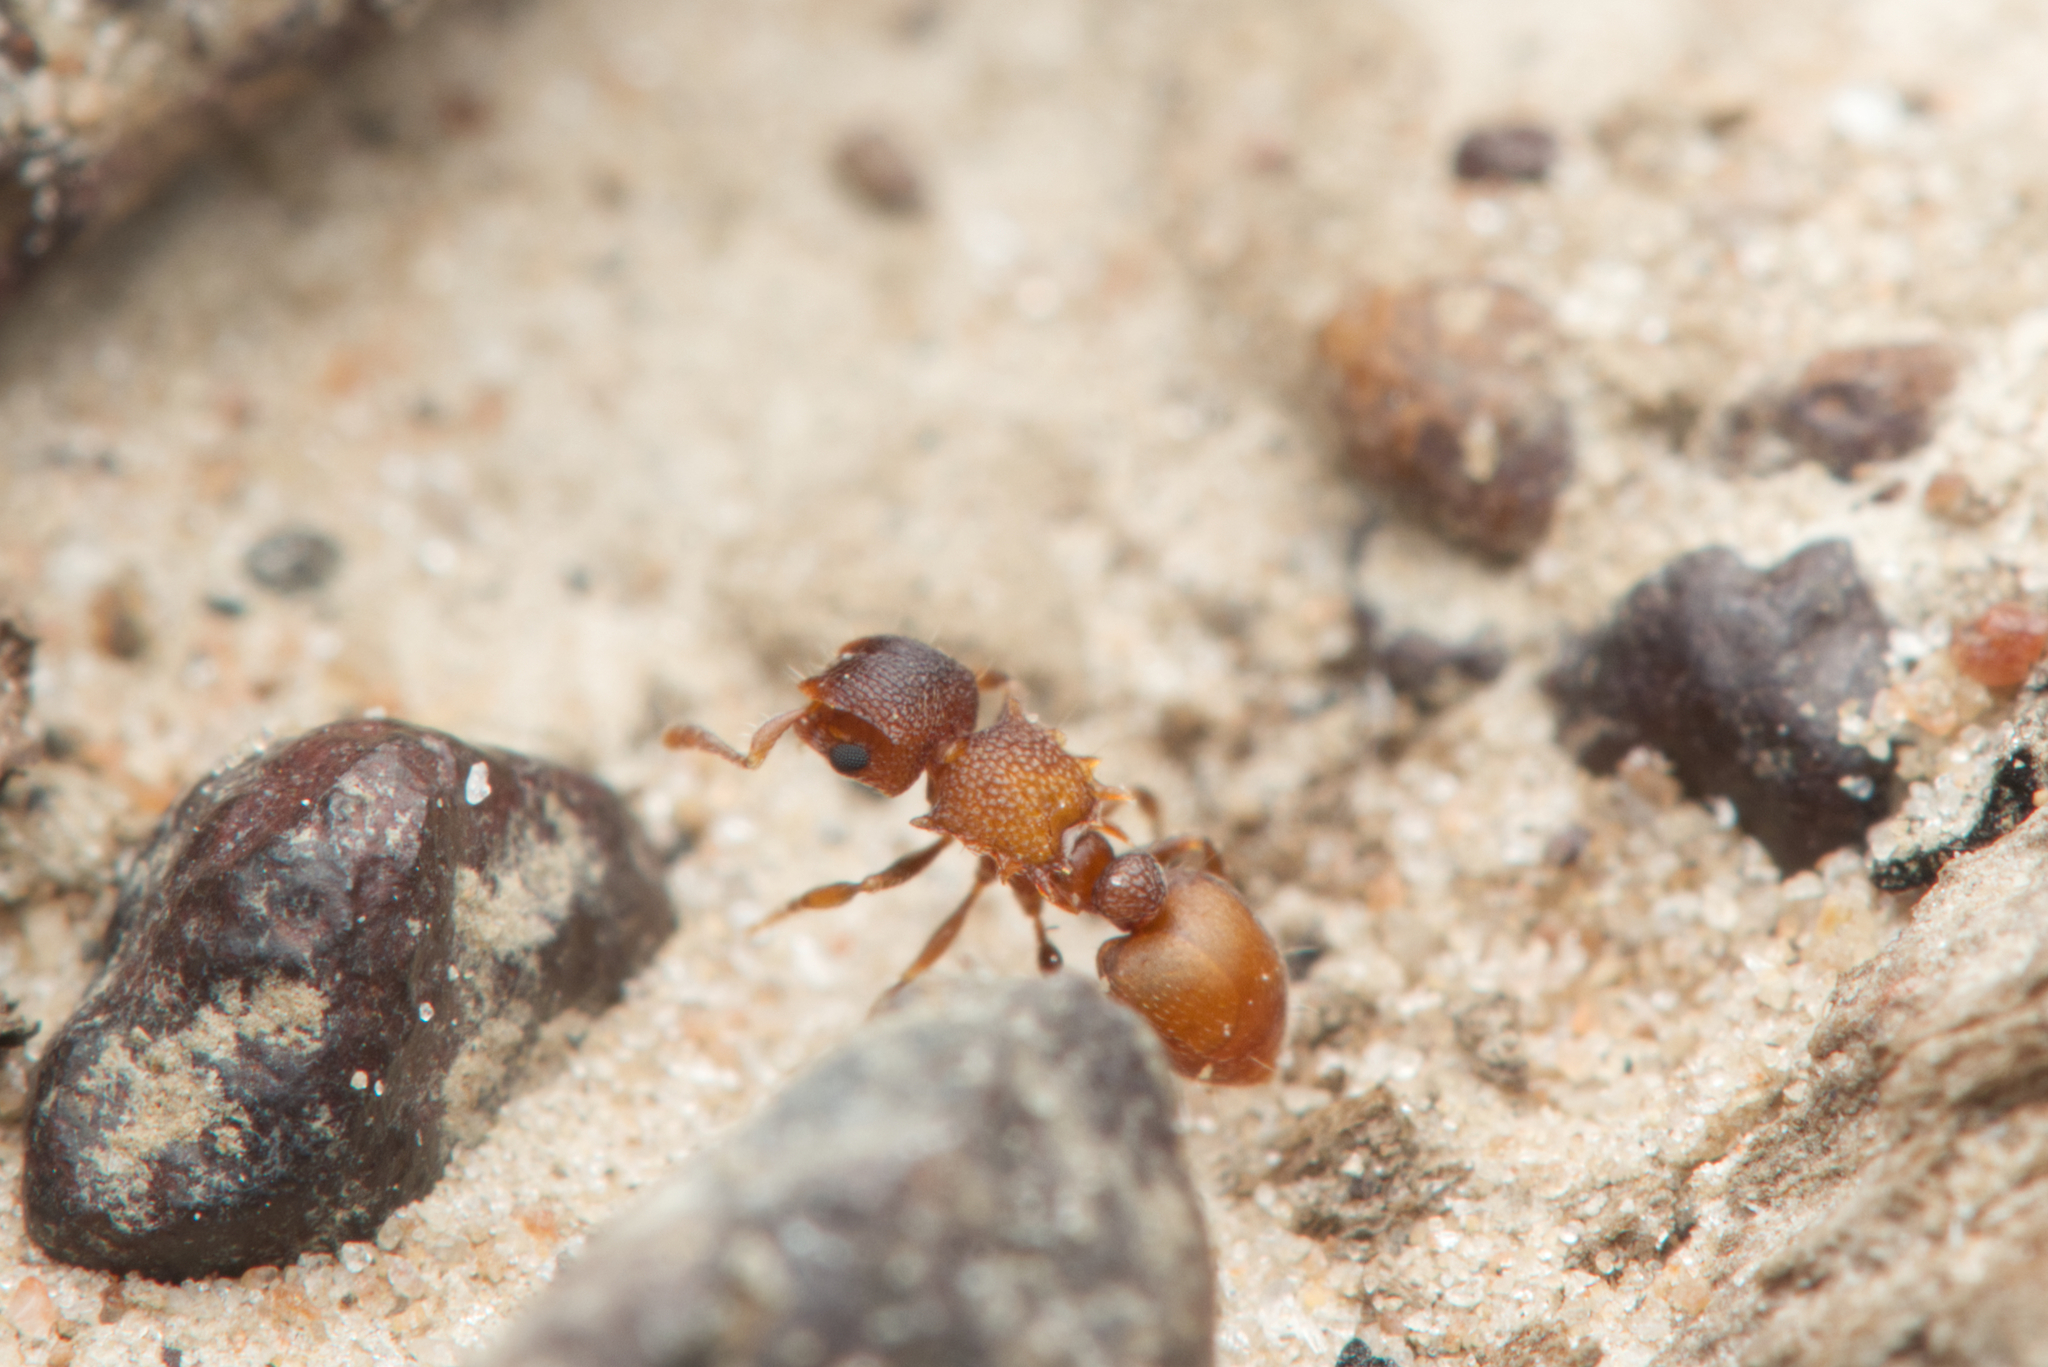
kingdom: Animalia
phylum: Arthropoda
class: Insecta
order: Hymenoptera
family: Formicidae
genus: Meranoplus
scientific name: Meranoplus linae
